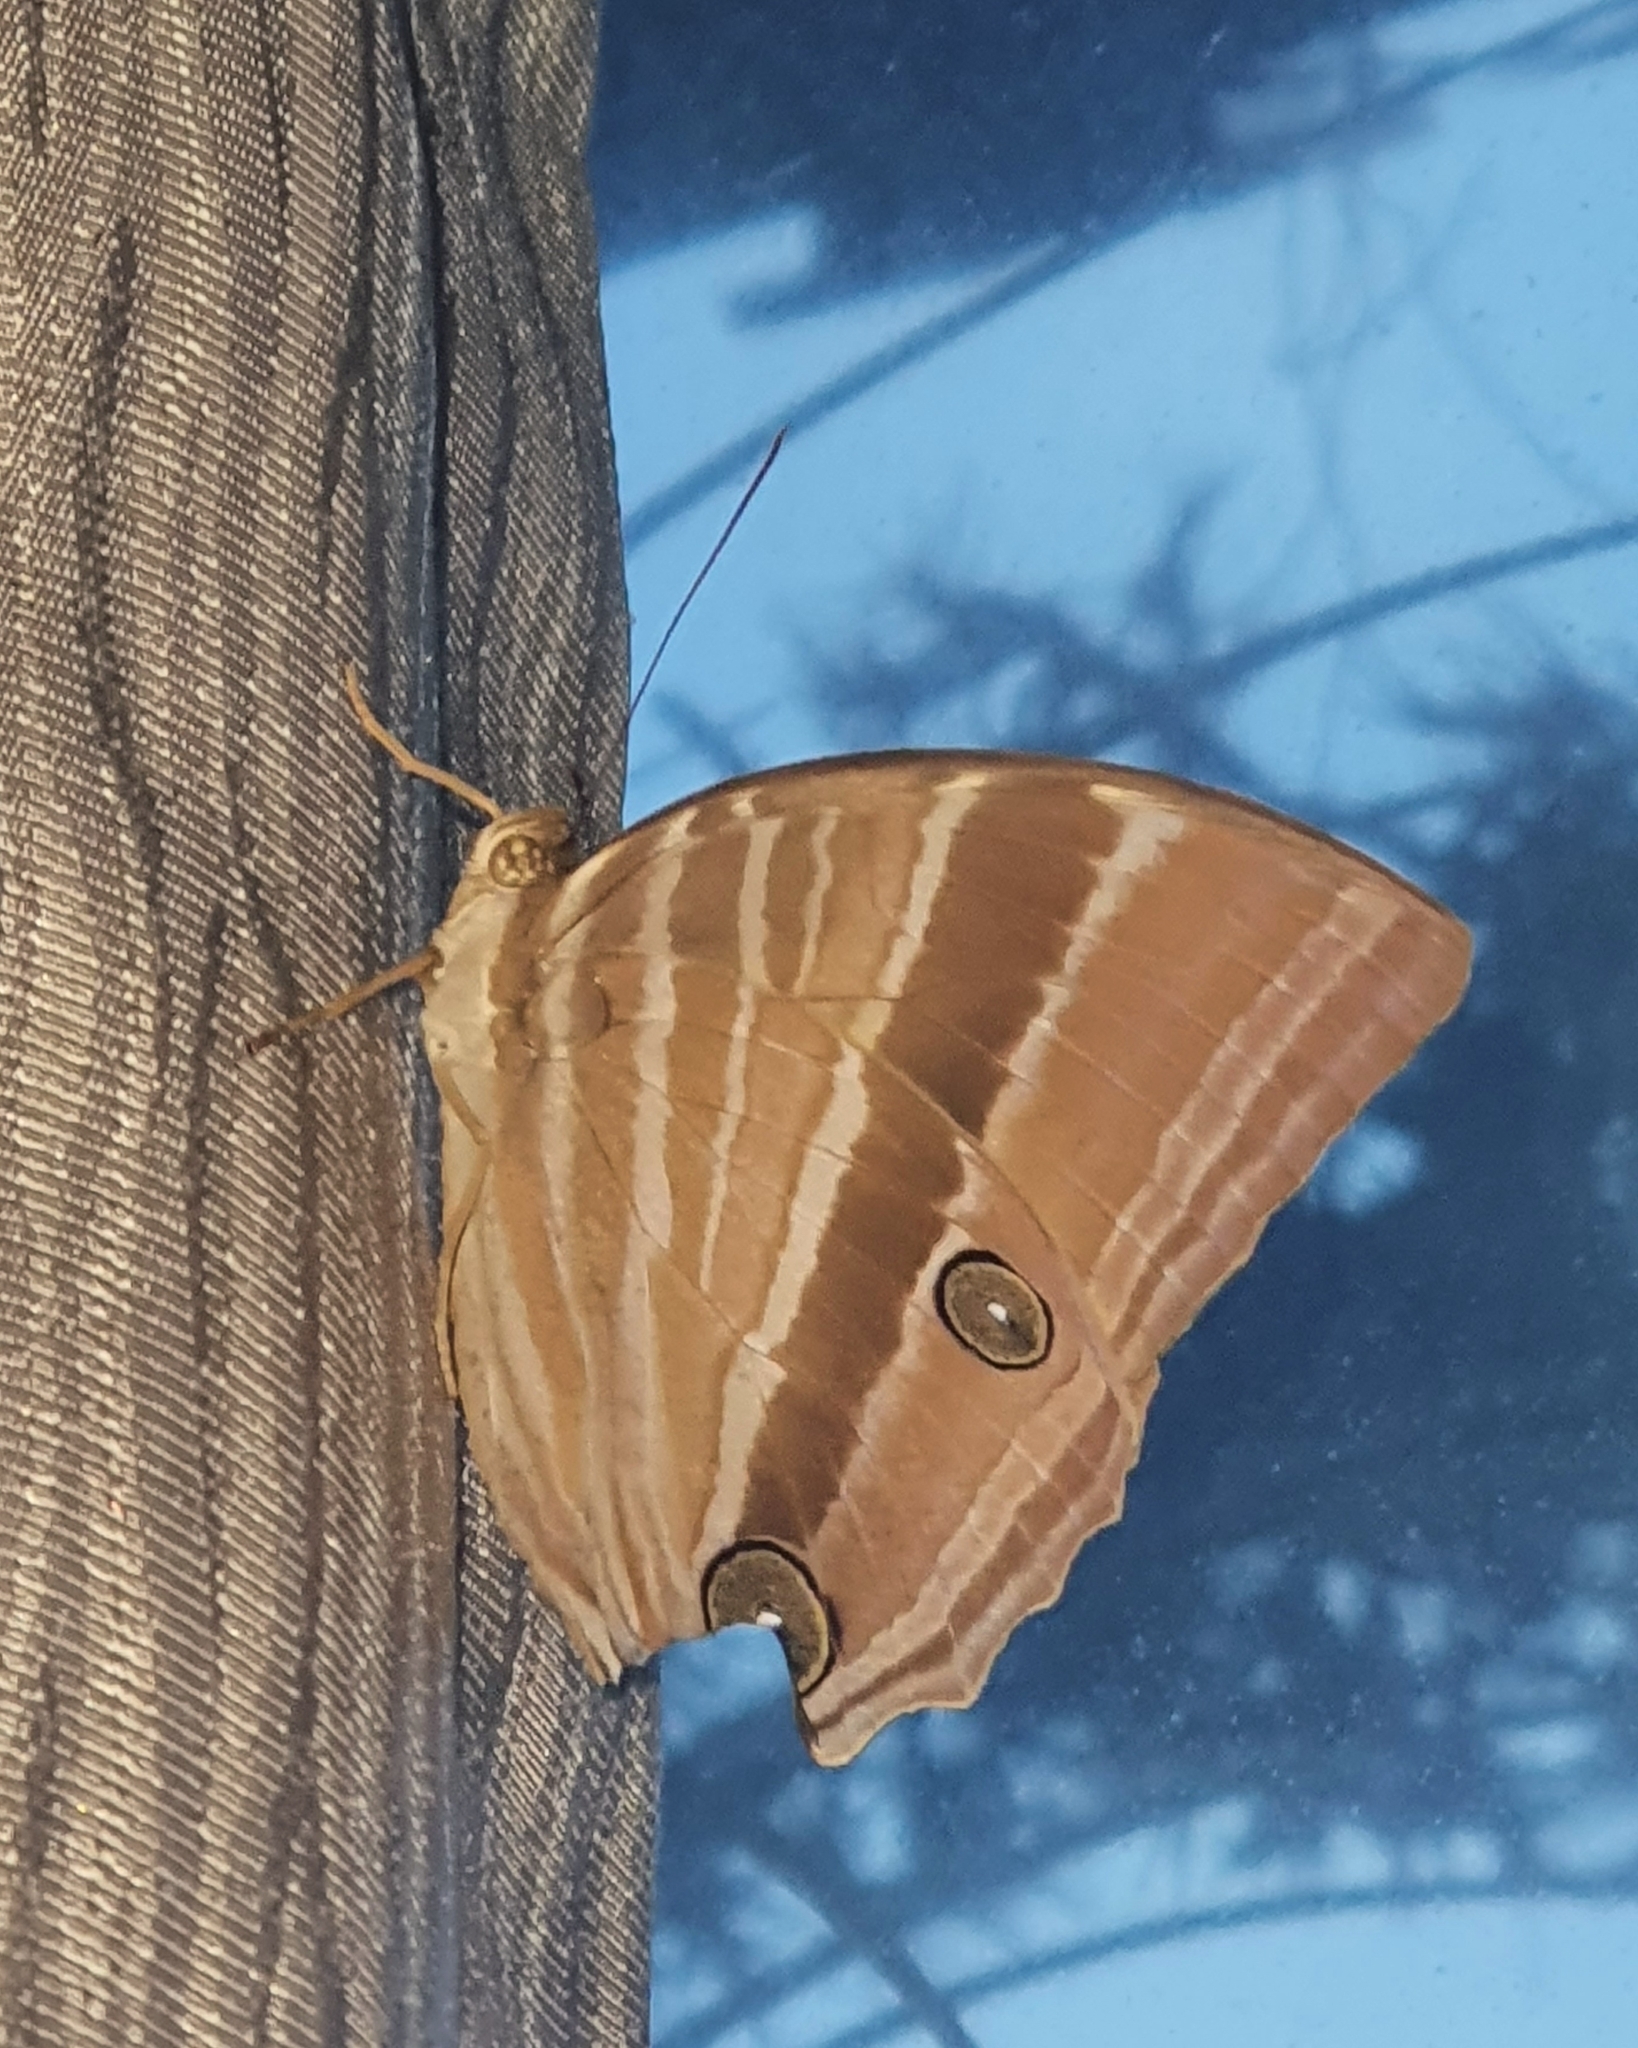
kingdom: Animalia
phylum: Arthropoda
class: Insecta
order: Lepidoptera
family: Nymphalidae
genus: Amathusia
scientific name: Amathusia phidippus
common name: Palm king
